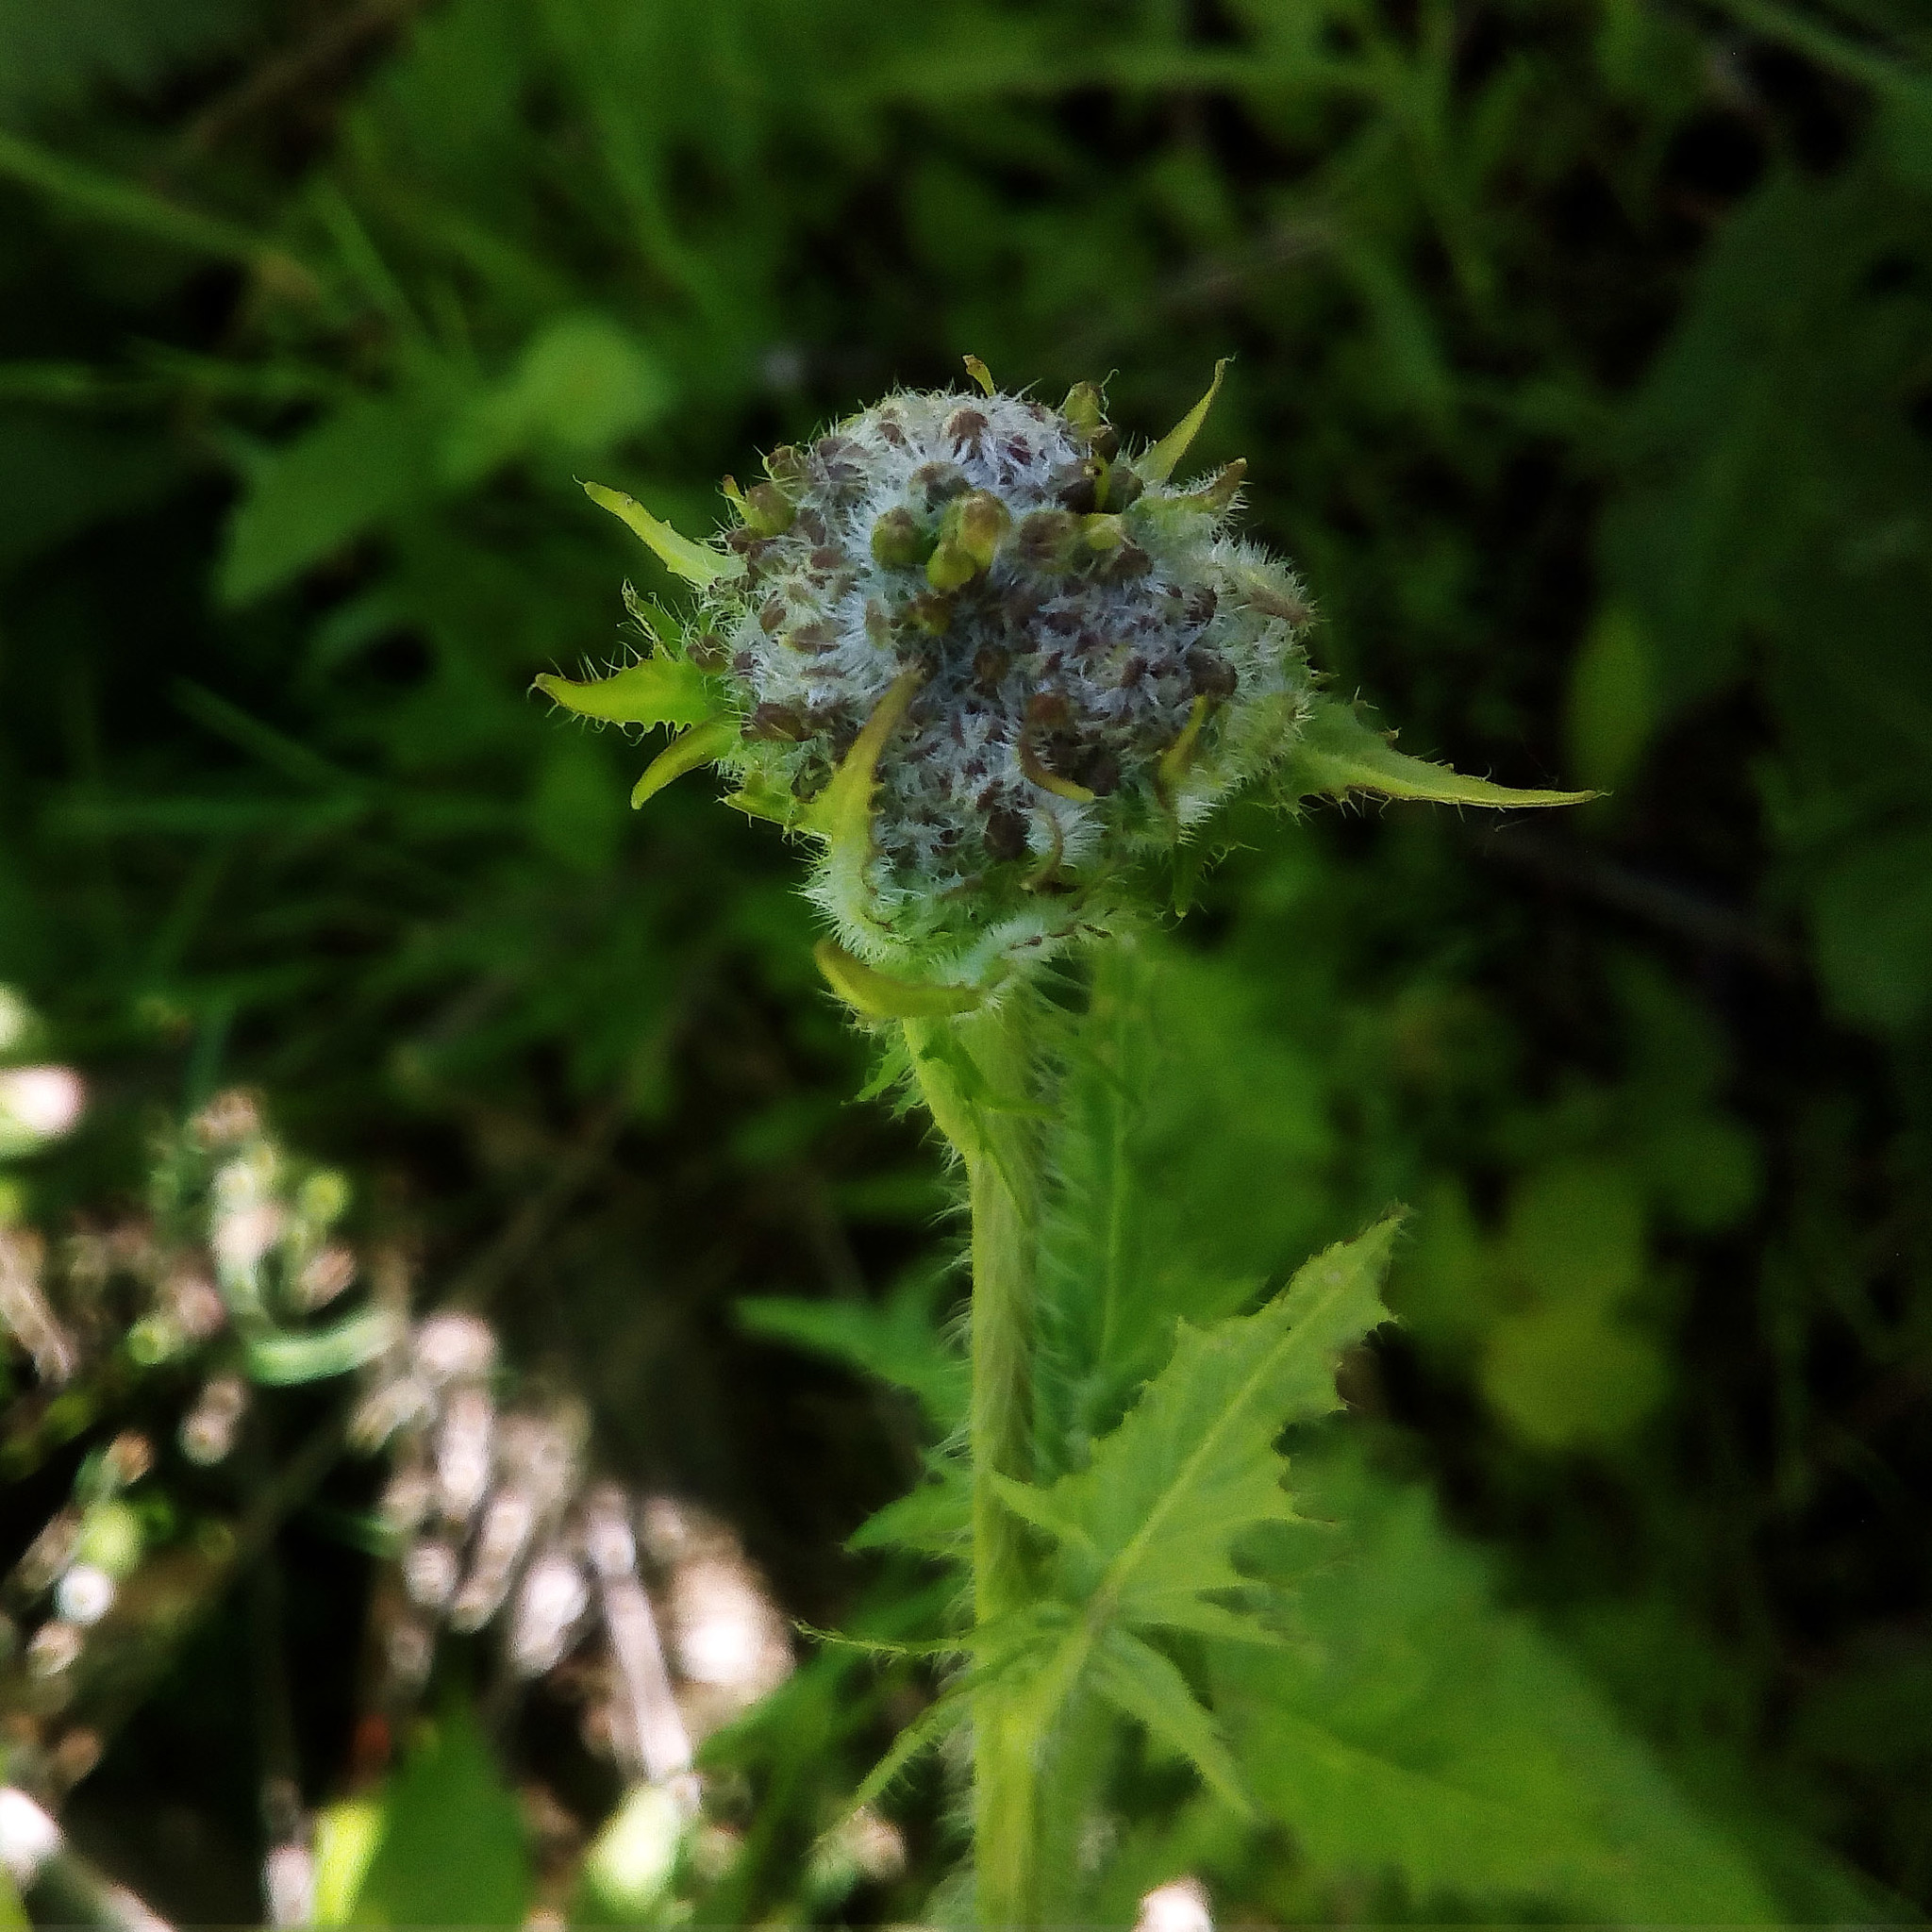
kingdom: Plantae
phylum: Tracheophyta
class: Magnoliopsida
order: Brassicales
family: Brassicaceae
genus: Sisymbrium
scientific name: Sisymbrium loeselii
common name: False london-rocket
